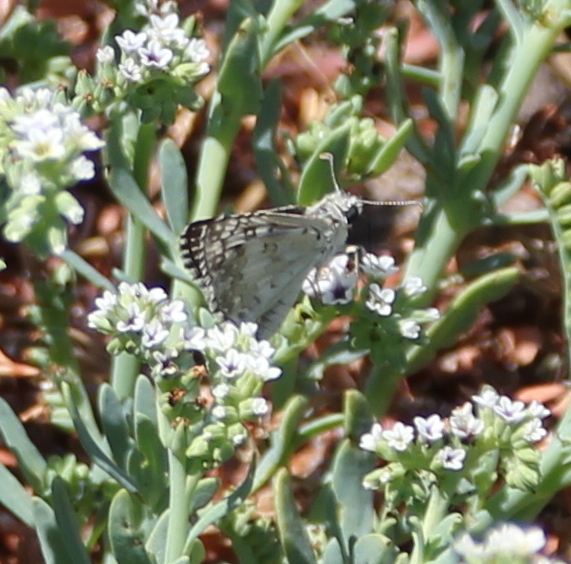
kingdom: Animalia
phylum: Arthropoda
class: Insecta
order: Lepidoptera
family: Hesperiidae
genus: Burnsius
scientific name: Burnsius albezens
